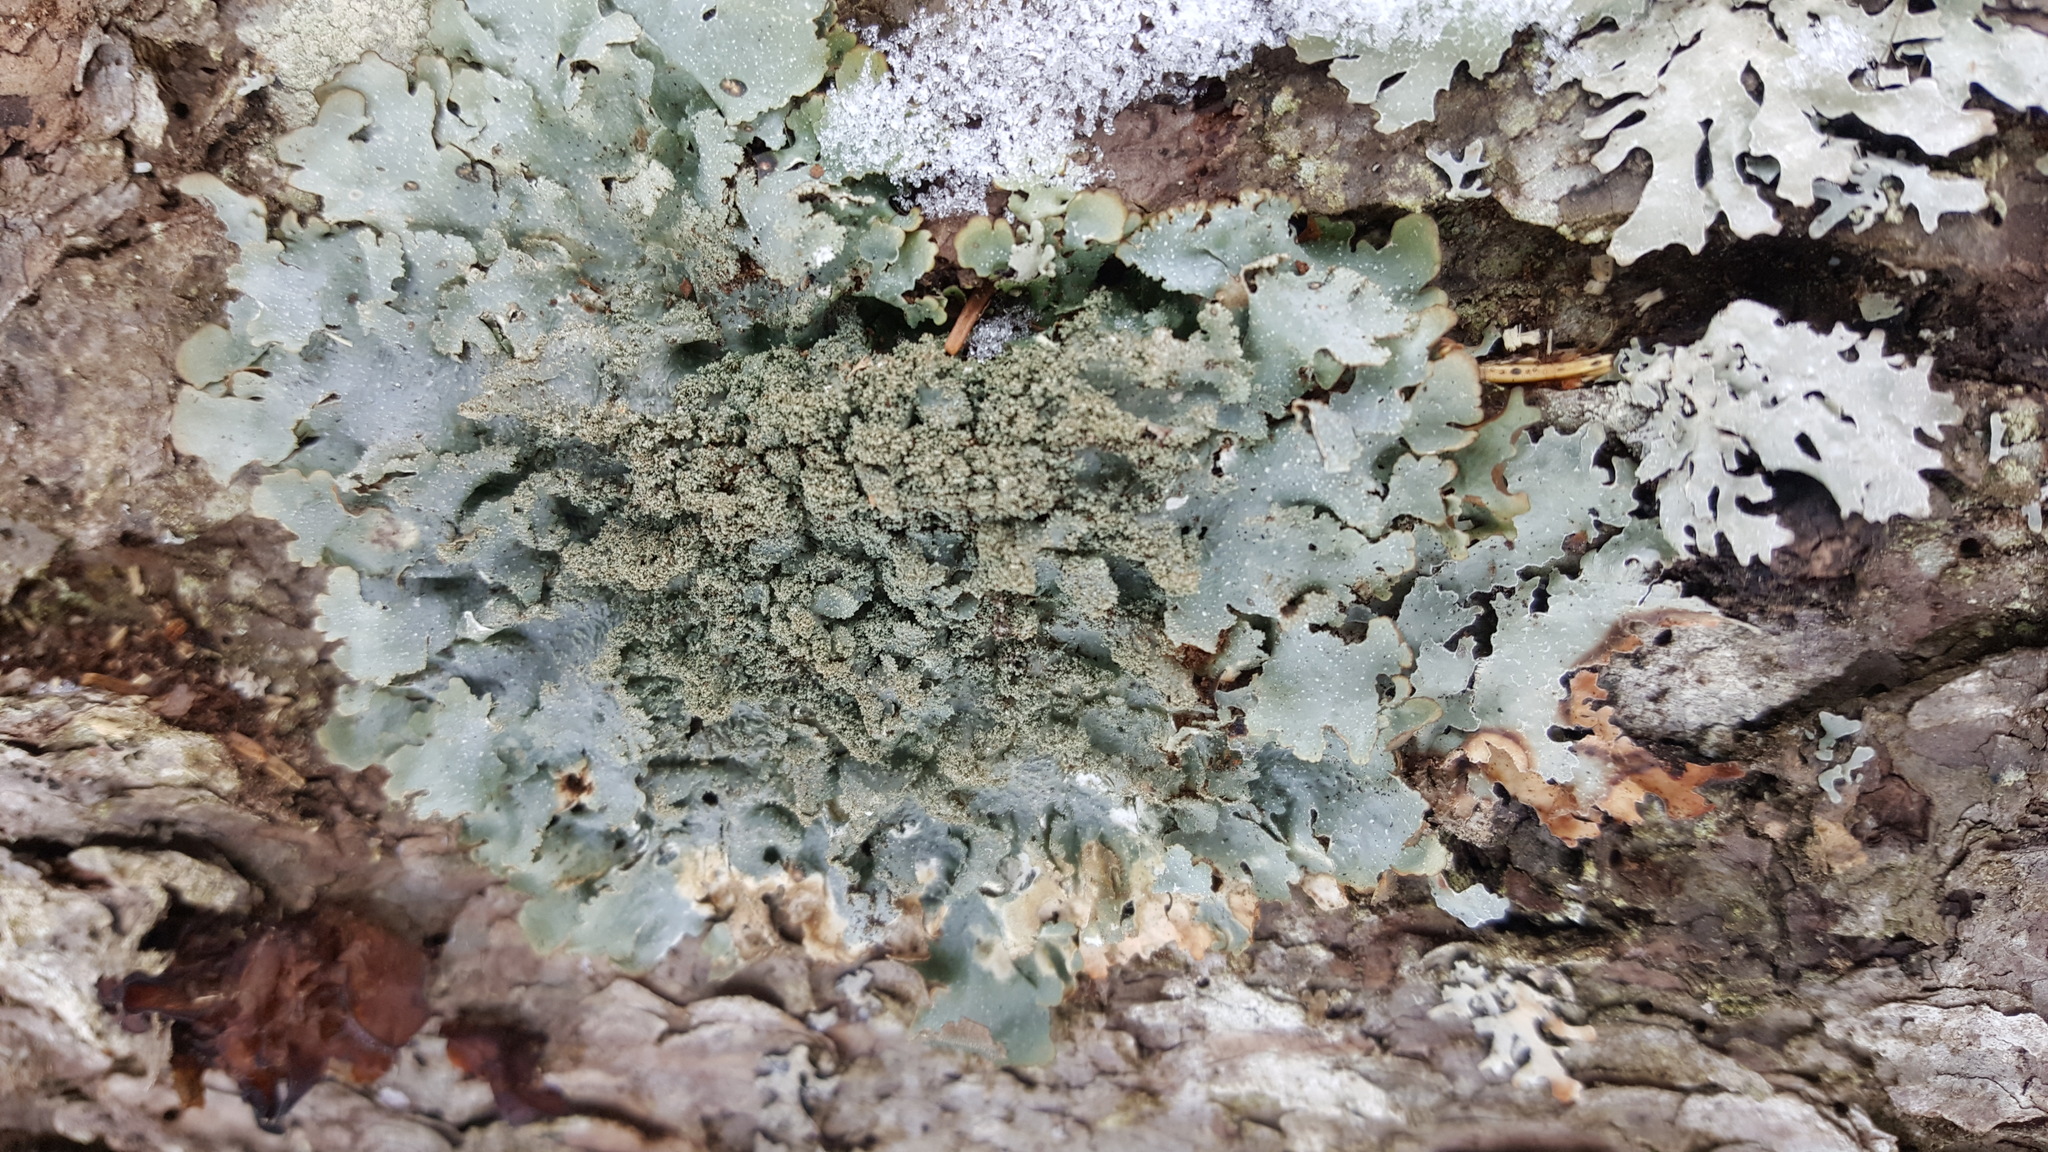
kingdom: Fungi
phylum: Ascomycota
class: Lecanoromycetes
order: Lecanorales
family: Parmeliaceae
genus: Punctelia
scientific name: Punctelia rudecta
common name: Rough speckled shield lichen
